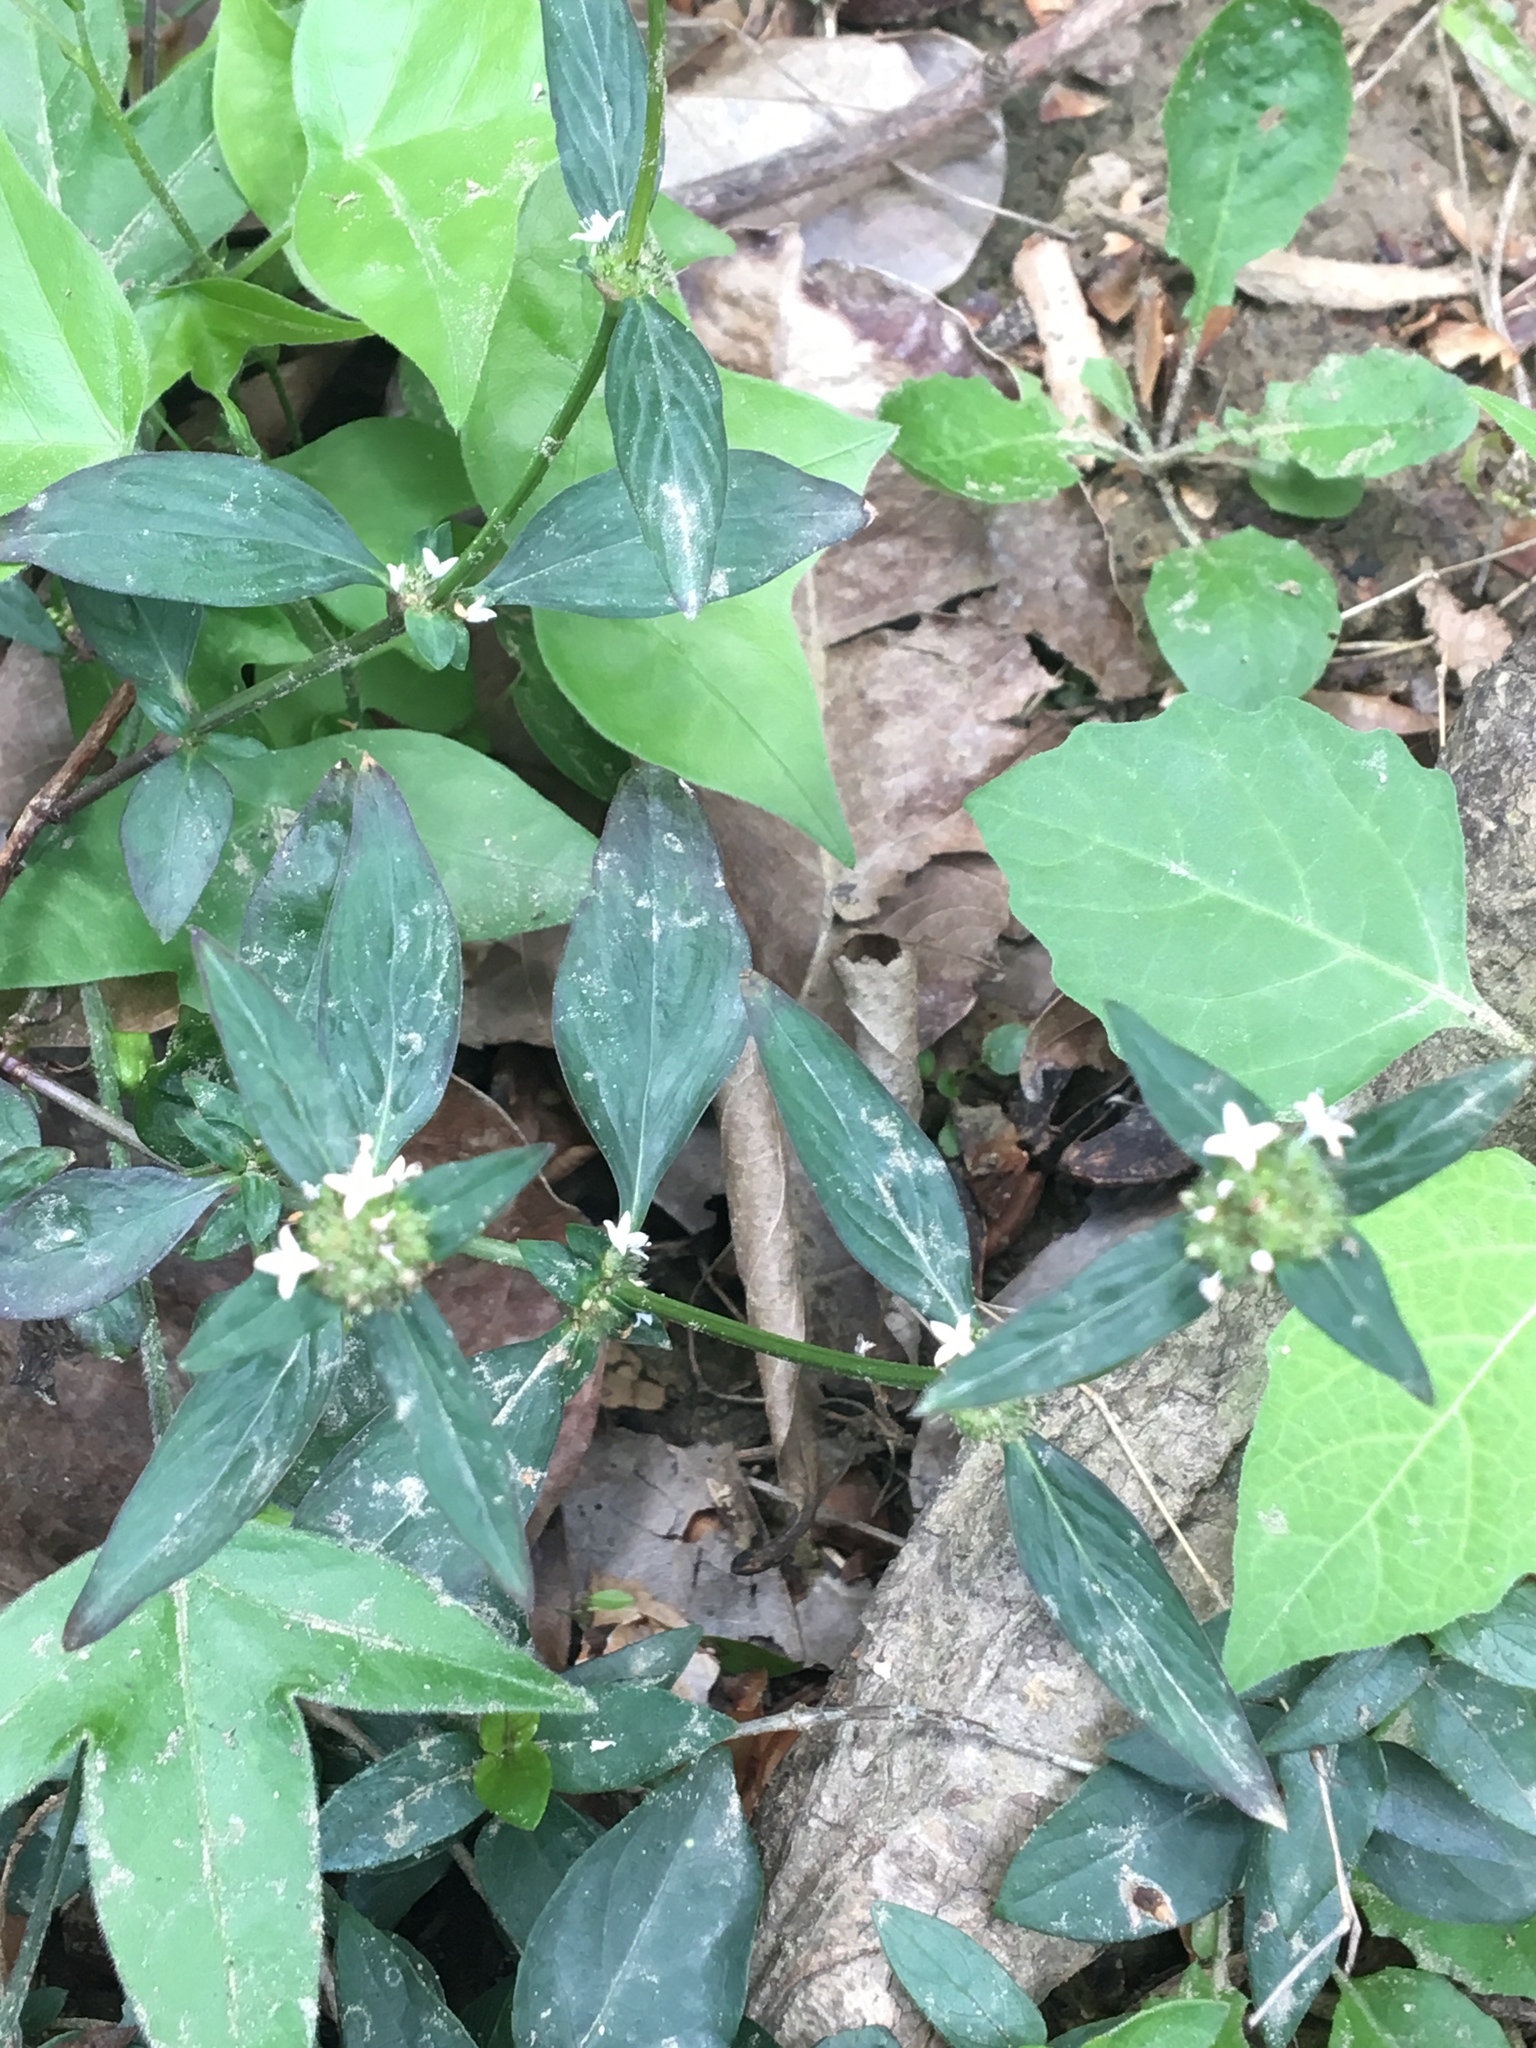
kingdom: Plantae
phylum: Tracheophyta
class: Magnoliopsida
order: Gentianales
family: Rubiaceae
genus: Spermacoce
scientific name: Spermacoce remota
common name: Woodland false buttonweed
